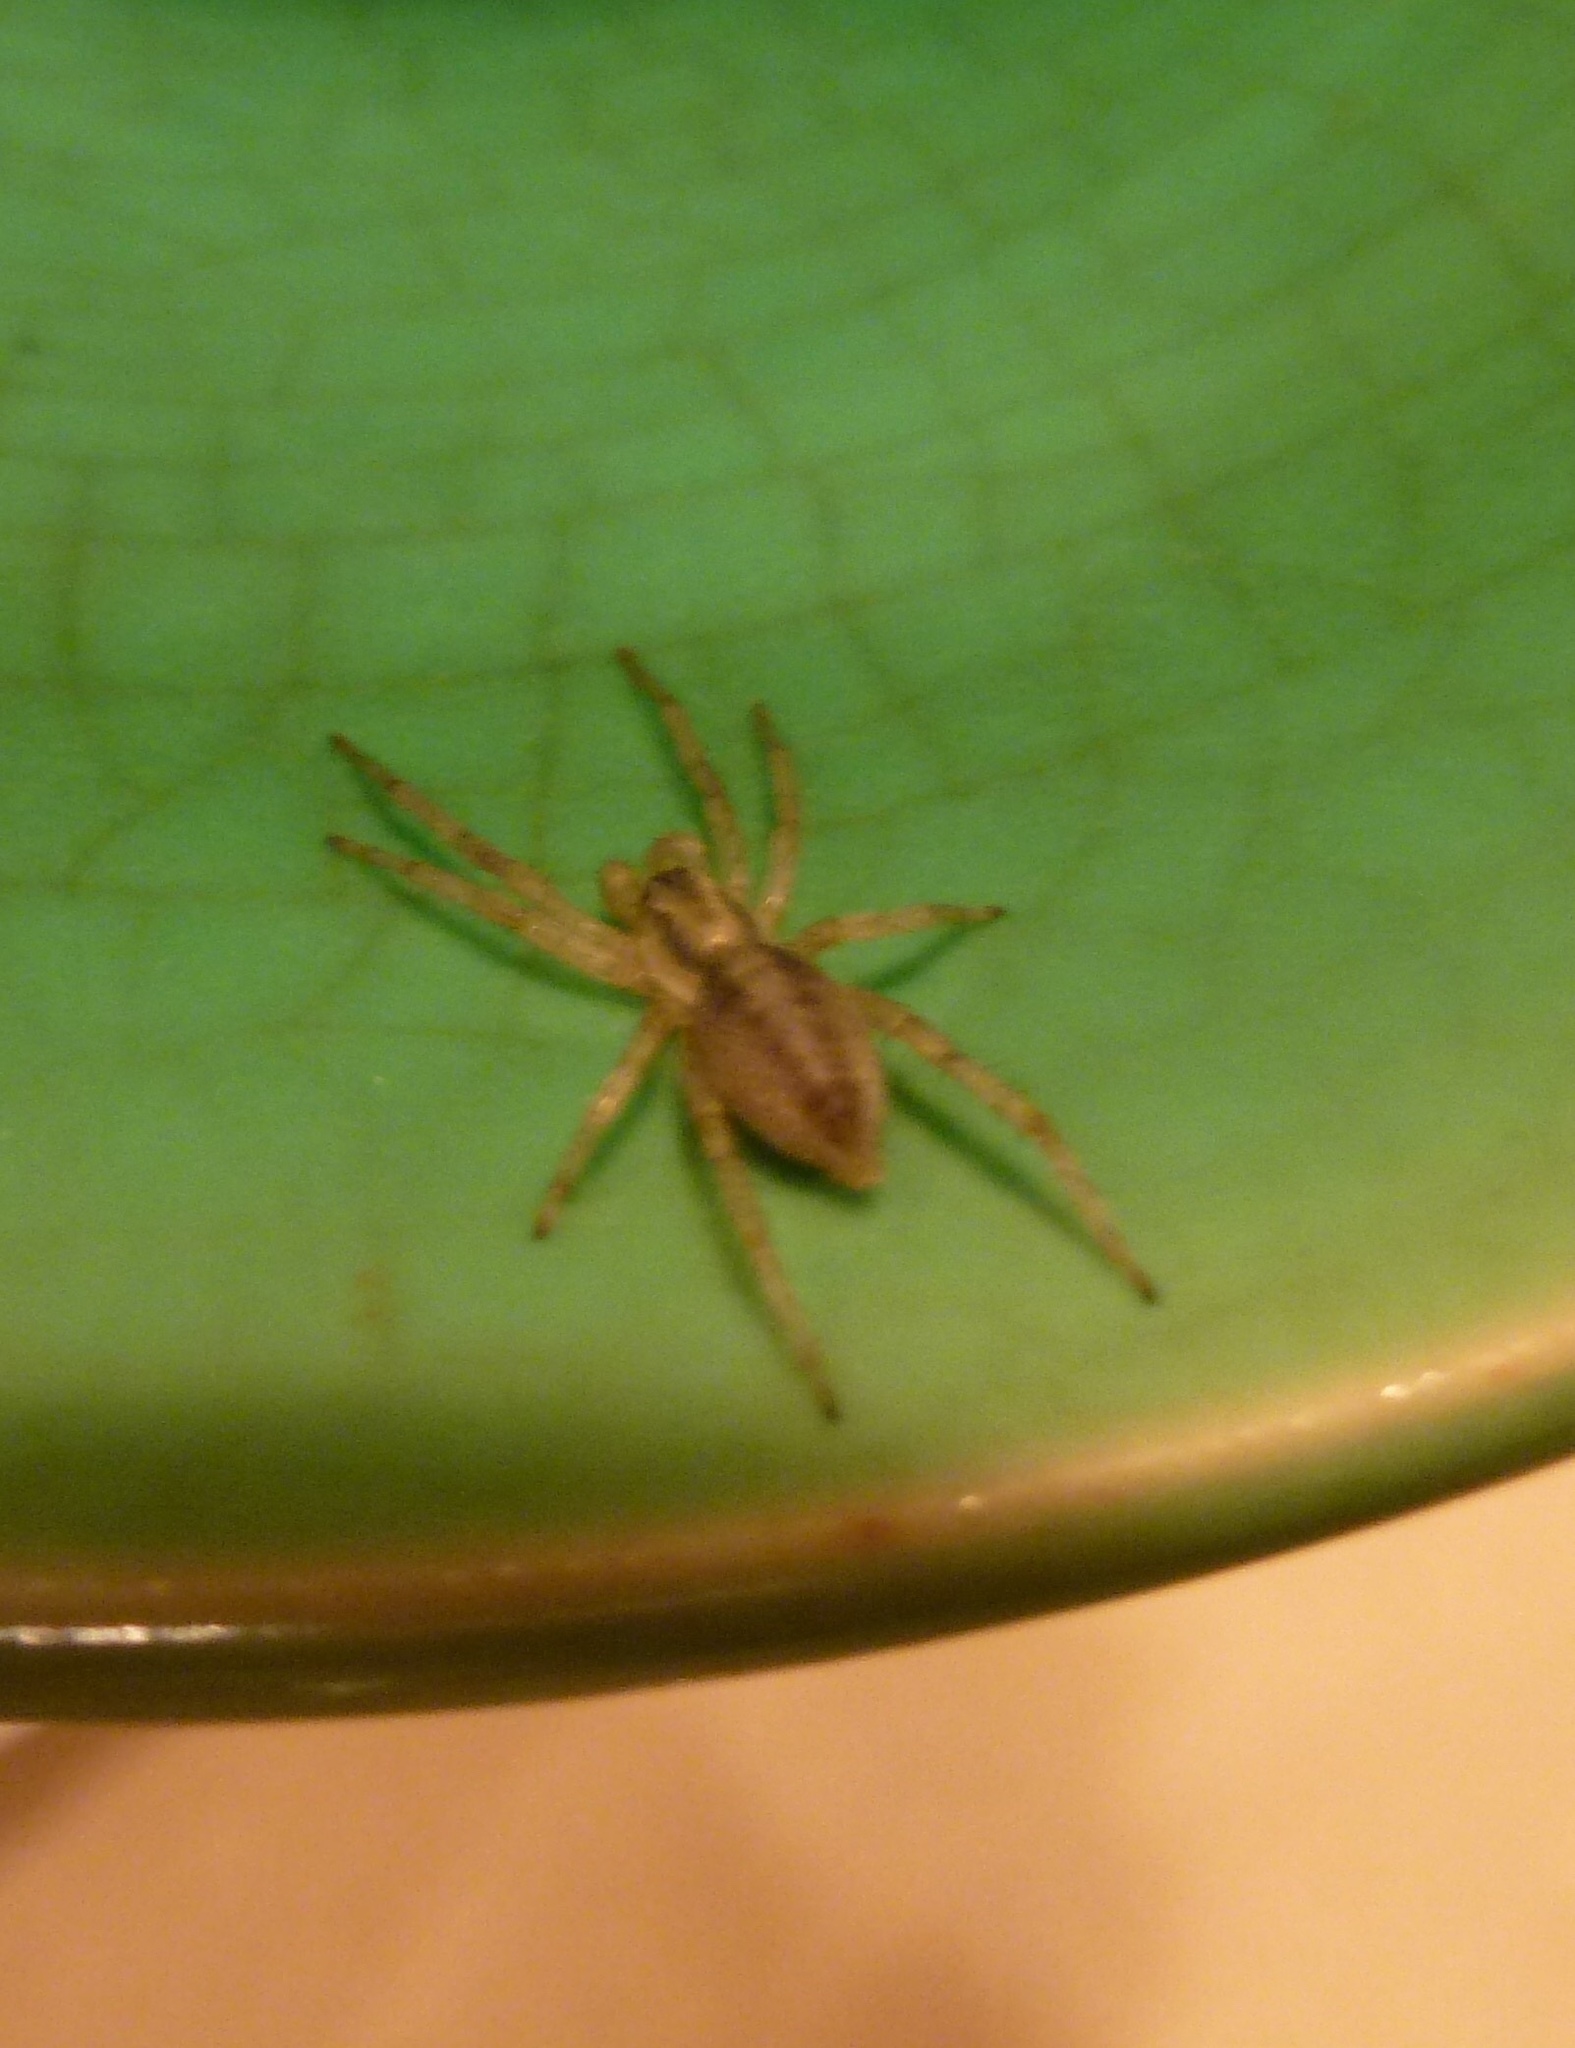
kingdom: Animalia
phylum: Arthropoda
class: Arachnida
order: Araneae
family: Anyphaenidae
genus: Hibana
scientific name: Hibana incursa
